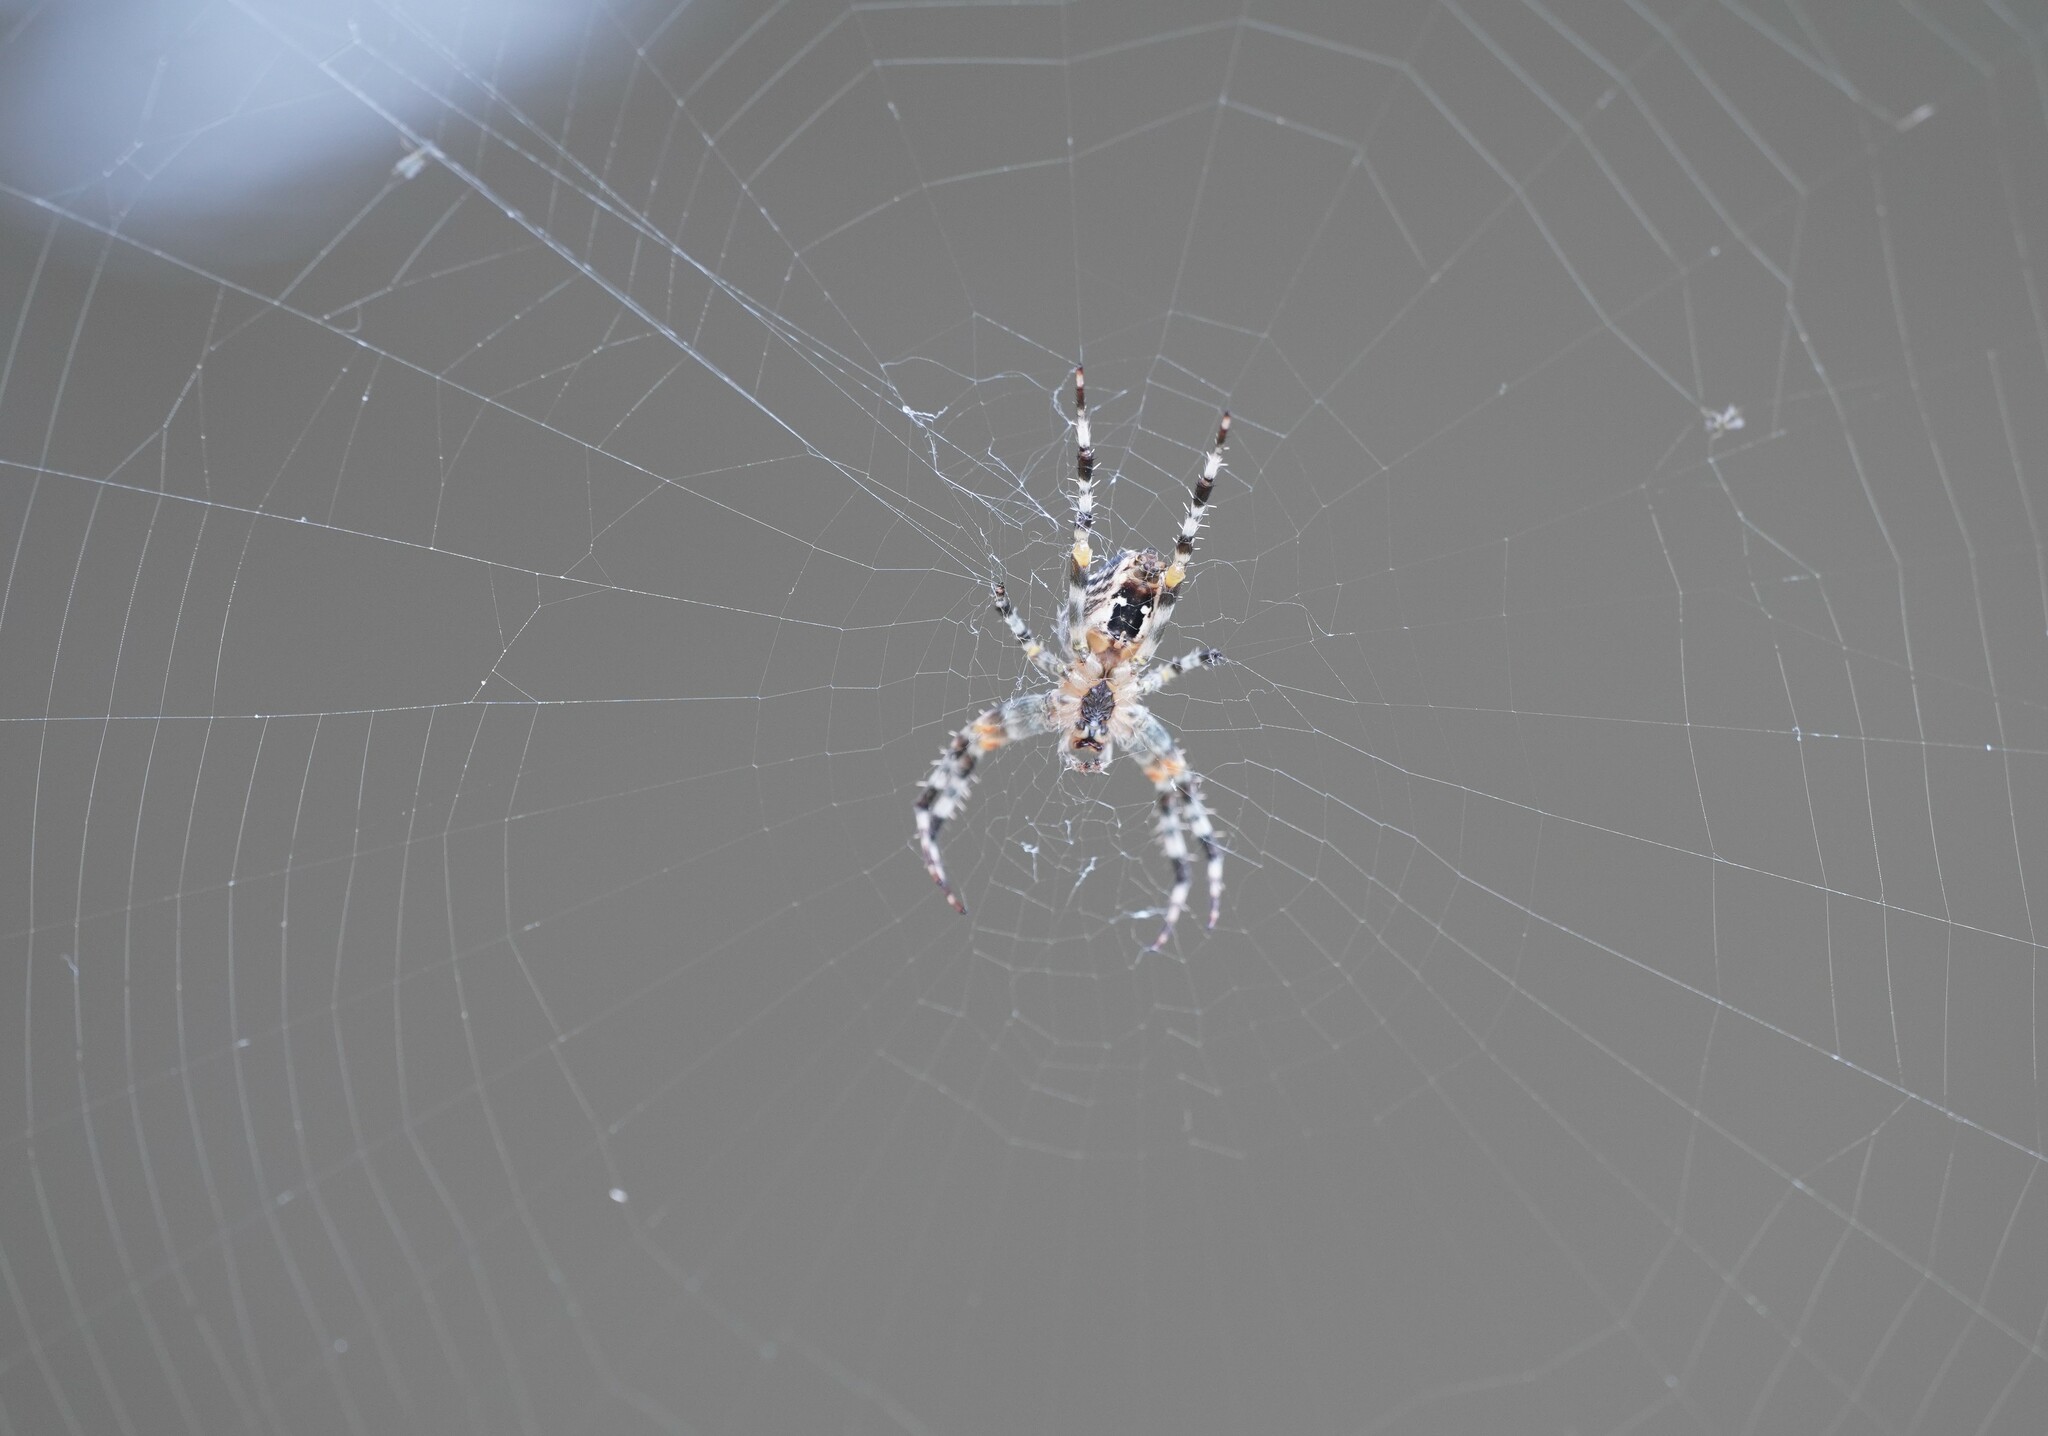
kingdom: Animalia
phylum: Arthropoda
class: Arachnida
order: Araneae
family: Araneidae
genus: Araneus
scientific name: Araneus diadematus
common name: Cross orbweaver
